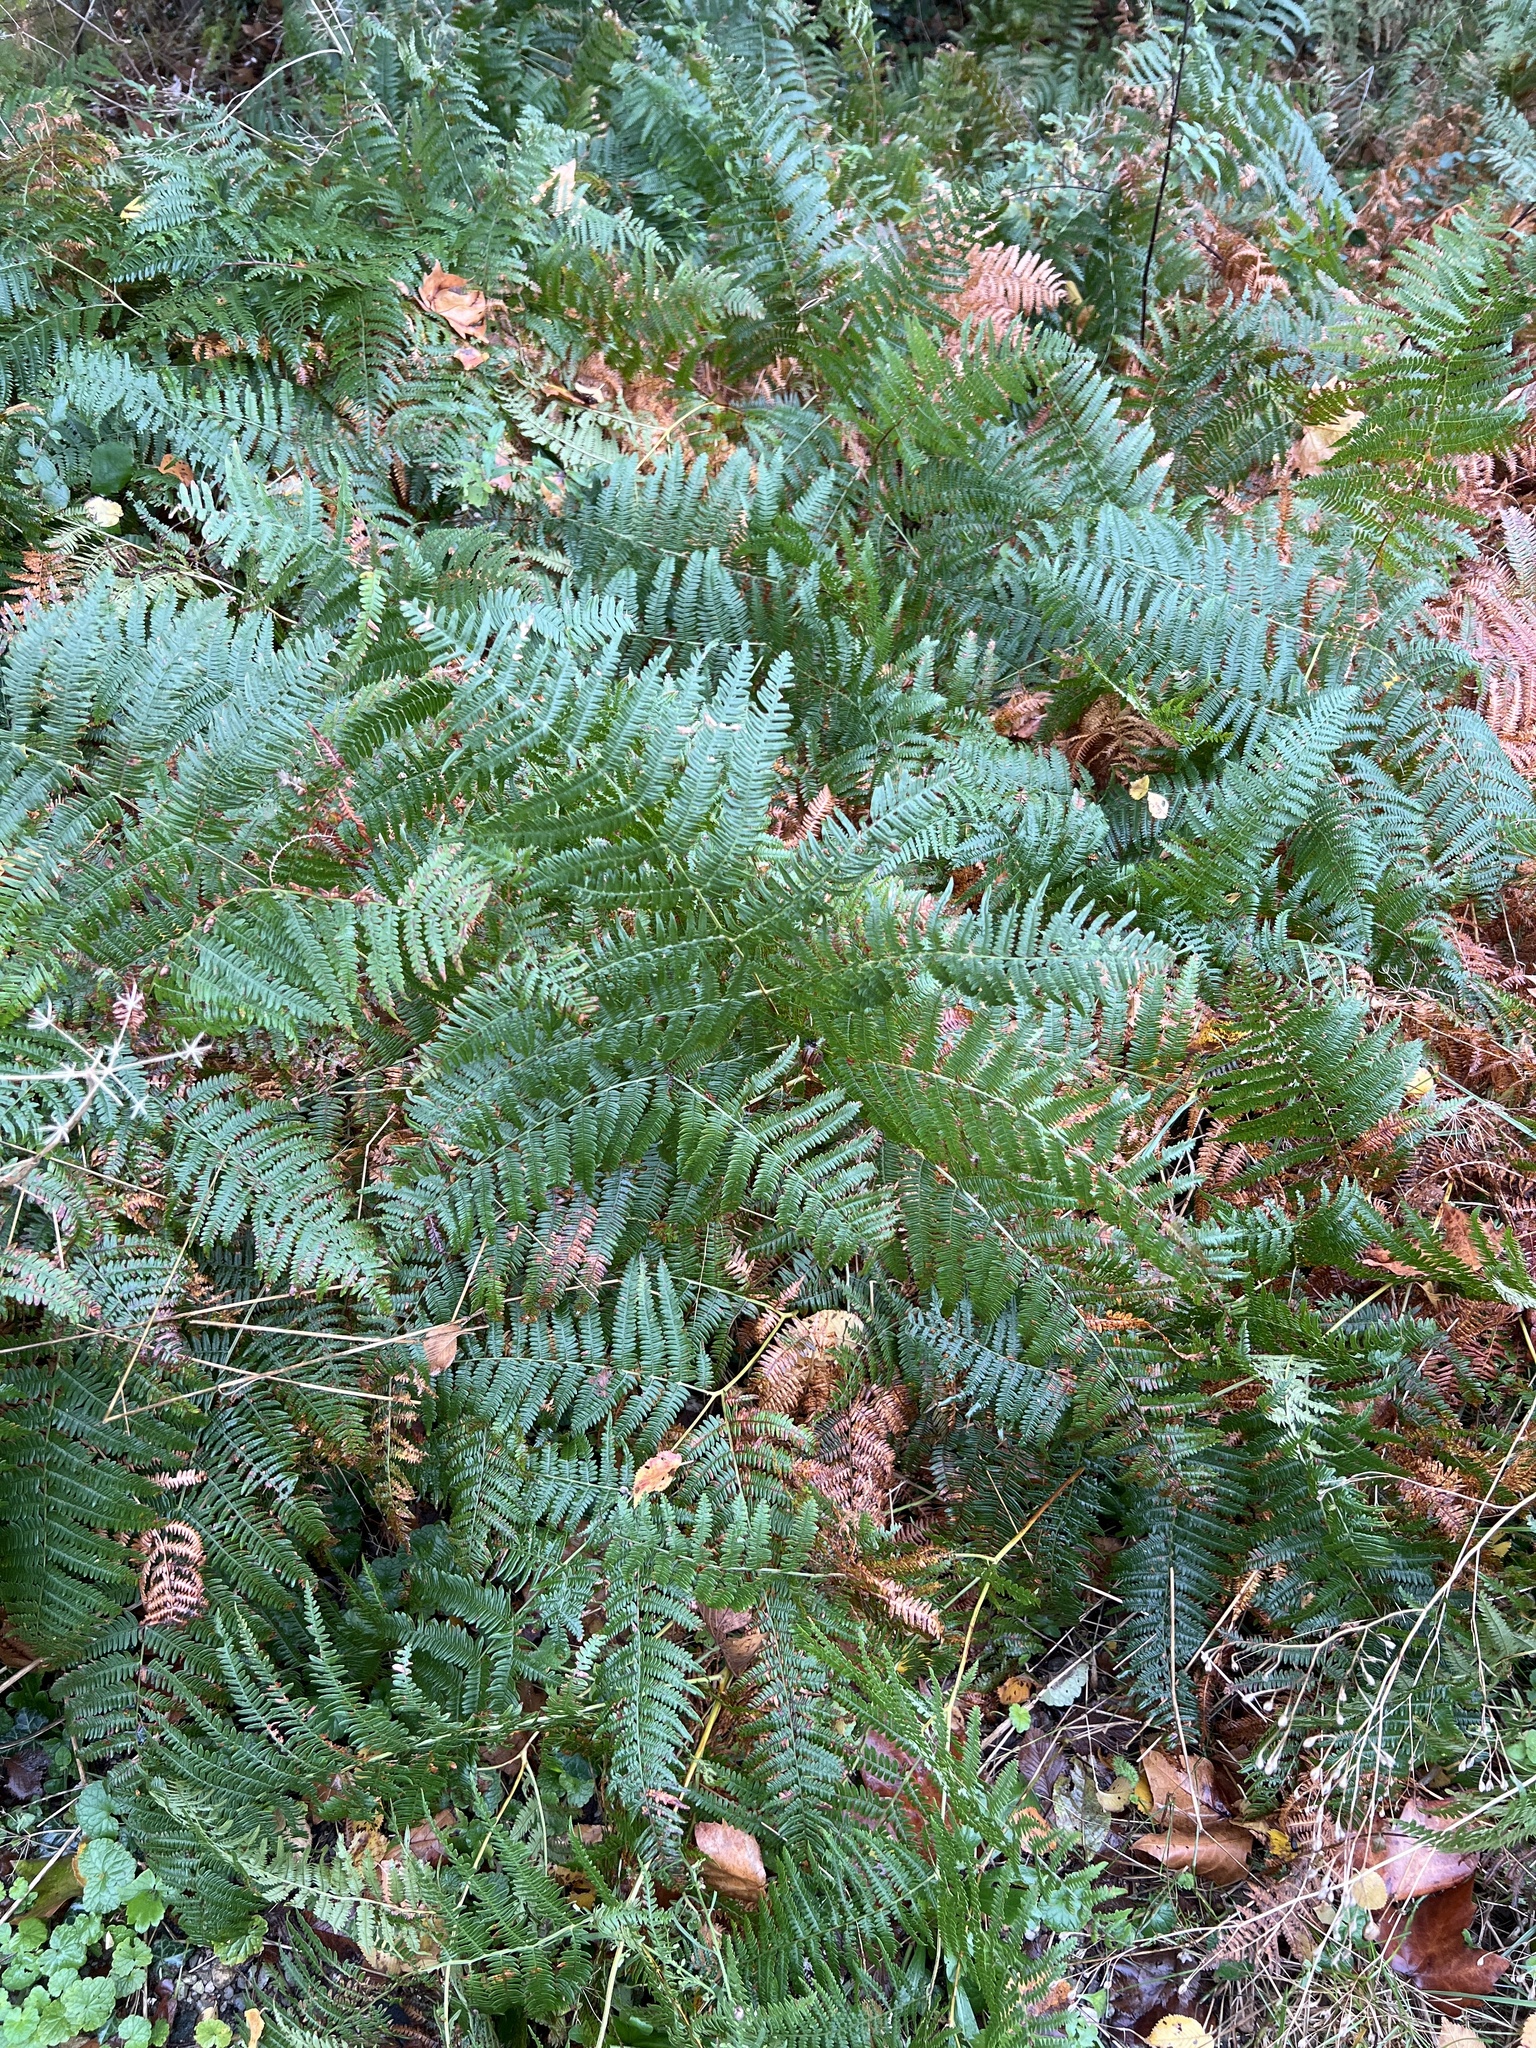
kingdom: Plantae
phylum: Tracheophyta
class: Polypodiopsida
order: Polypodiales
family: Dennstaedtiaceae
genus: Pteridium
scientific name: Pteridium aquilinum
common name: Bracken
